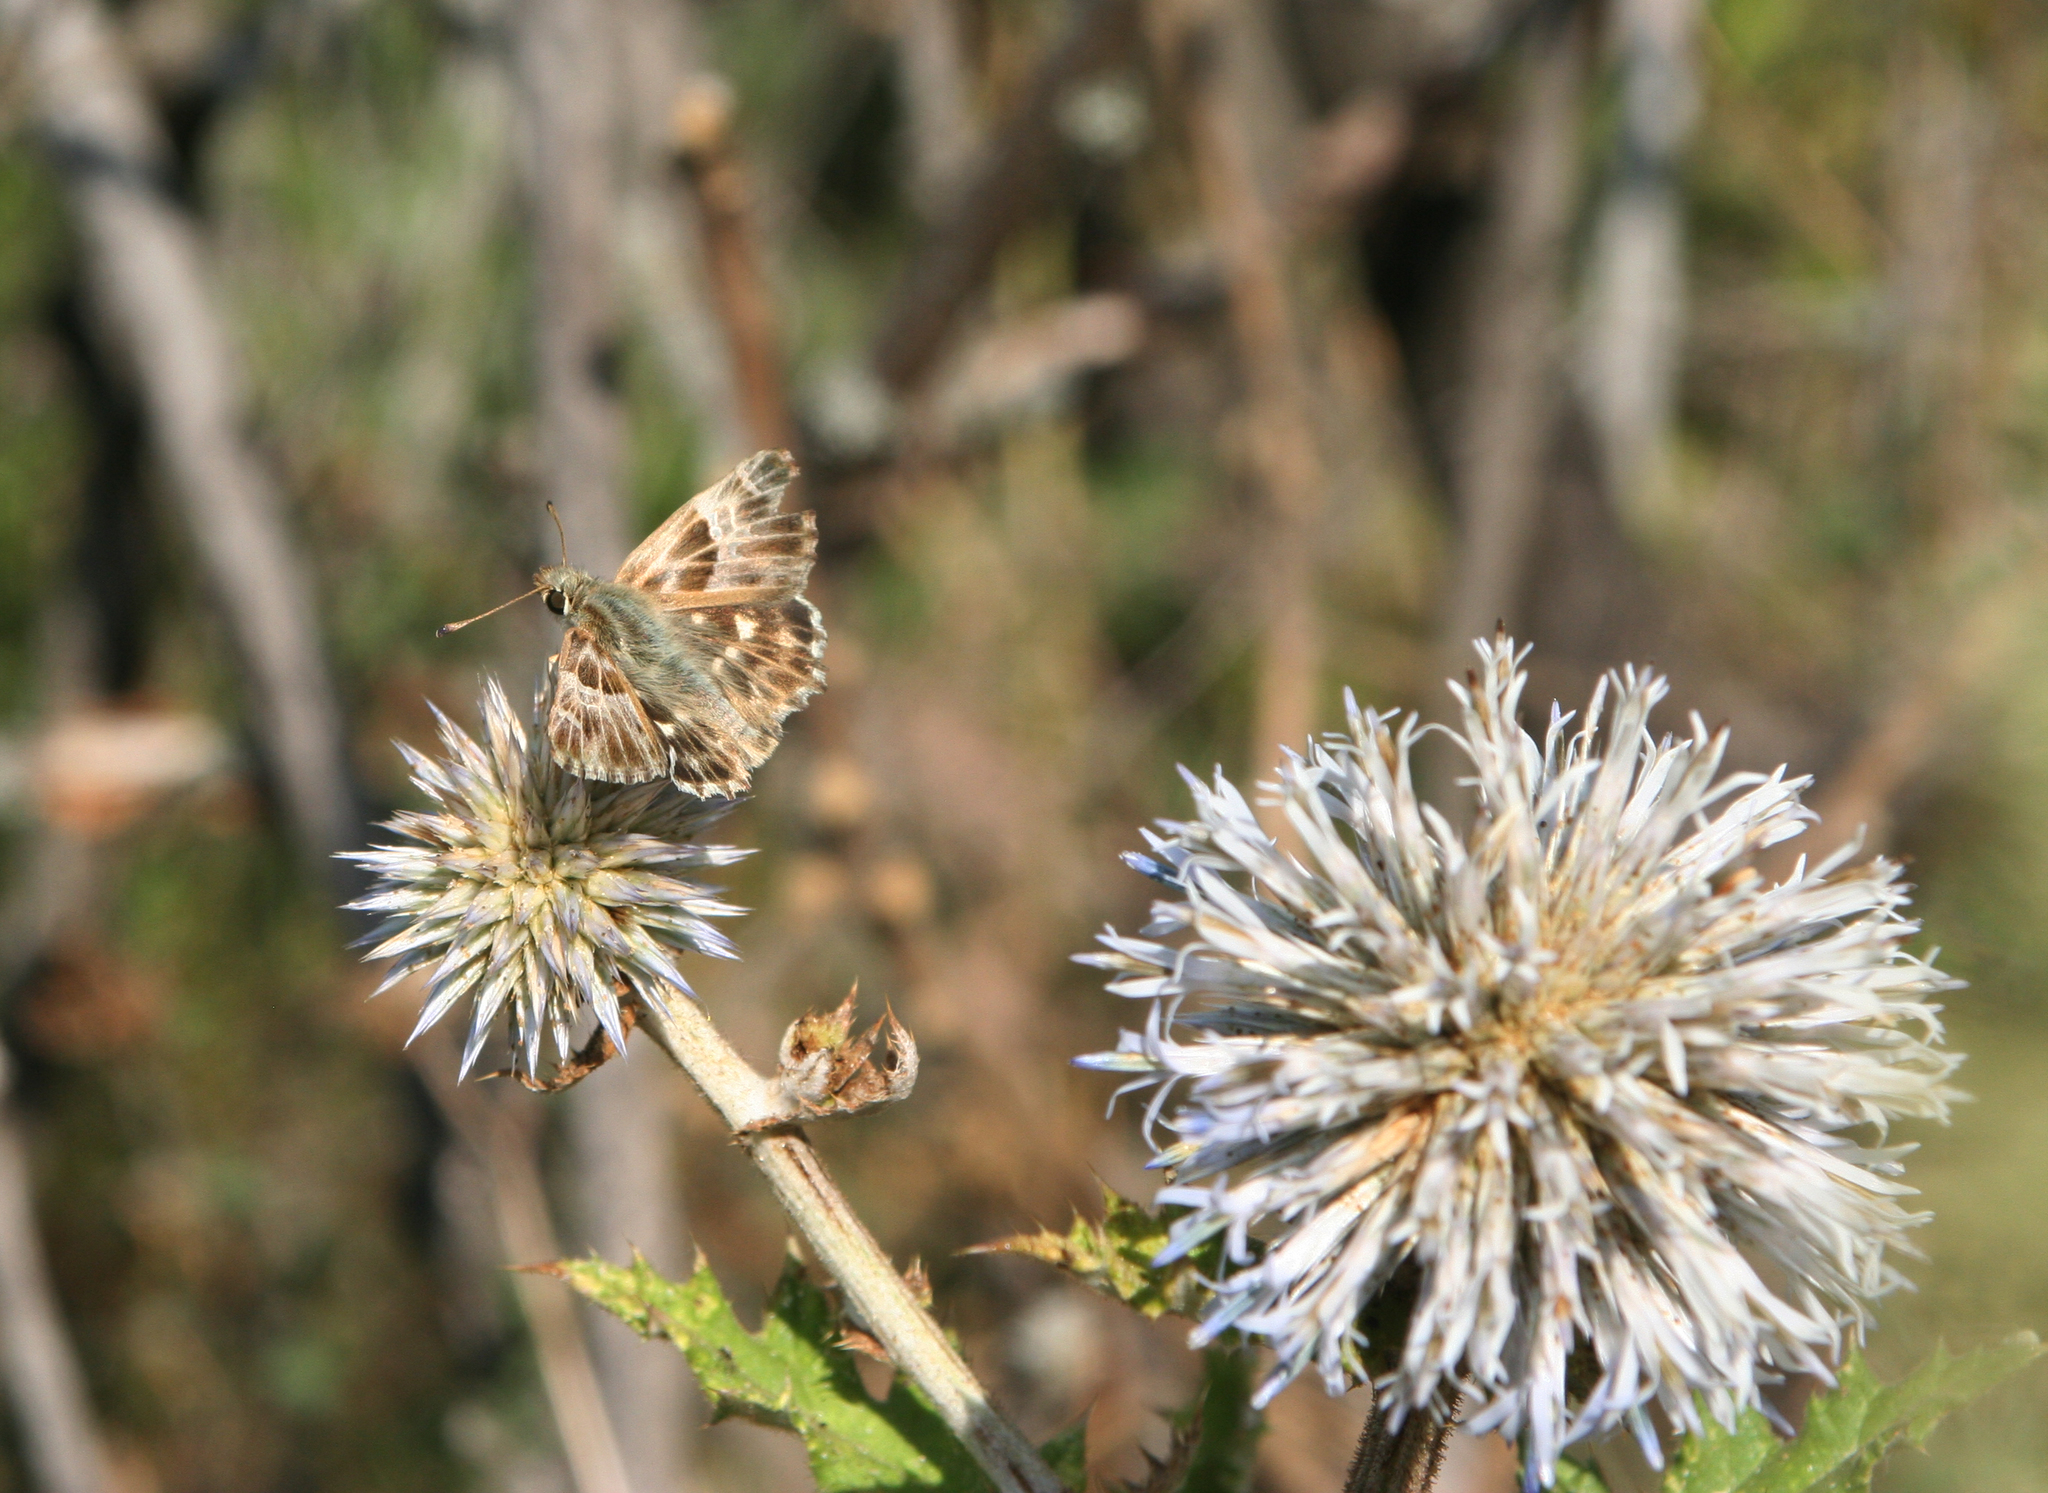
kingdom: Animalia
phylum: Arthropoda
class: Insecta
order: Lepidoptera
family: Hesperiidae
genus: Syrichtus
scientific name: Syrichtus
